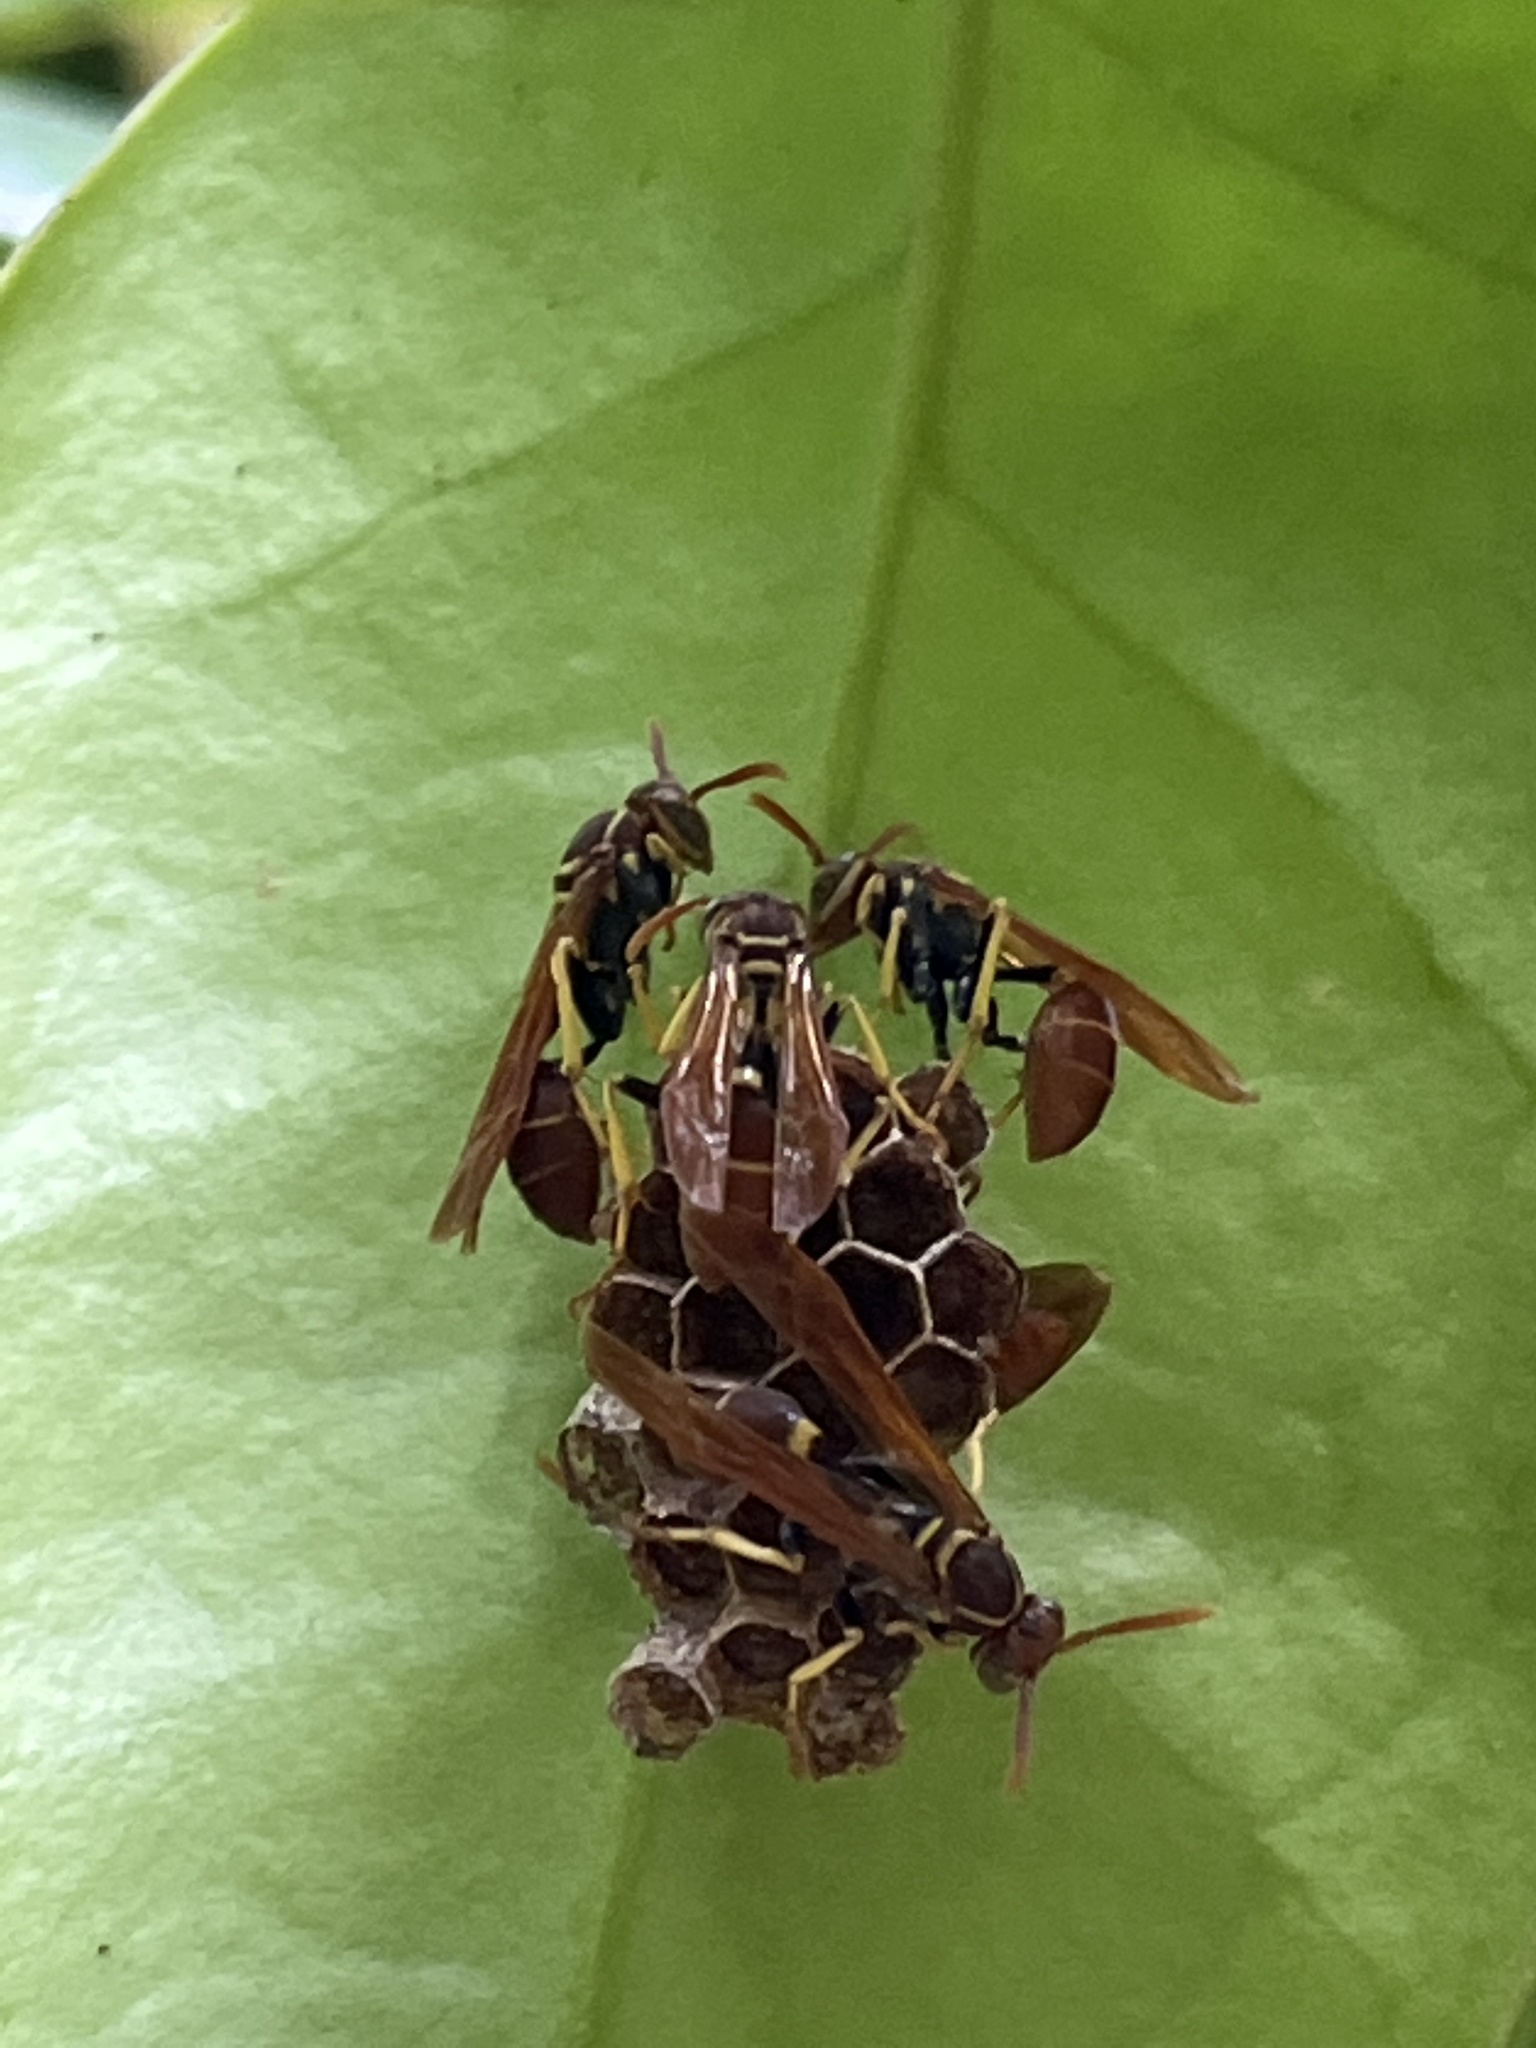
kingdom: Animalia
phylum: Arthropoda
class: Insecta
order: Hymenoptera
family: Vespidae
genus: Mischocyttarus
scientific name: Mischocyttarus phthisicus
